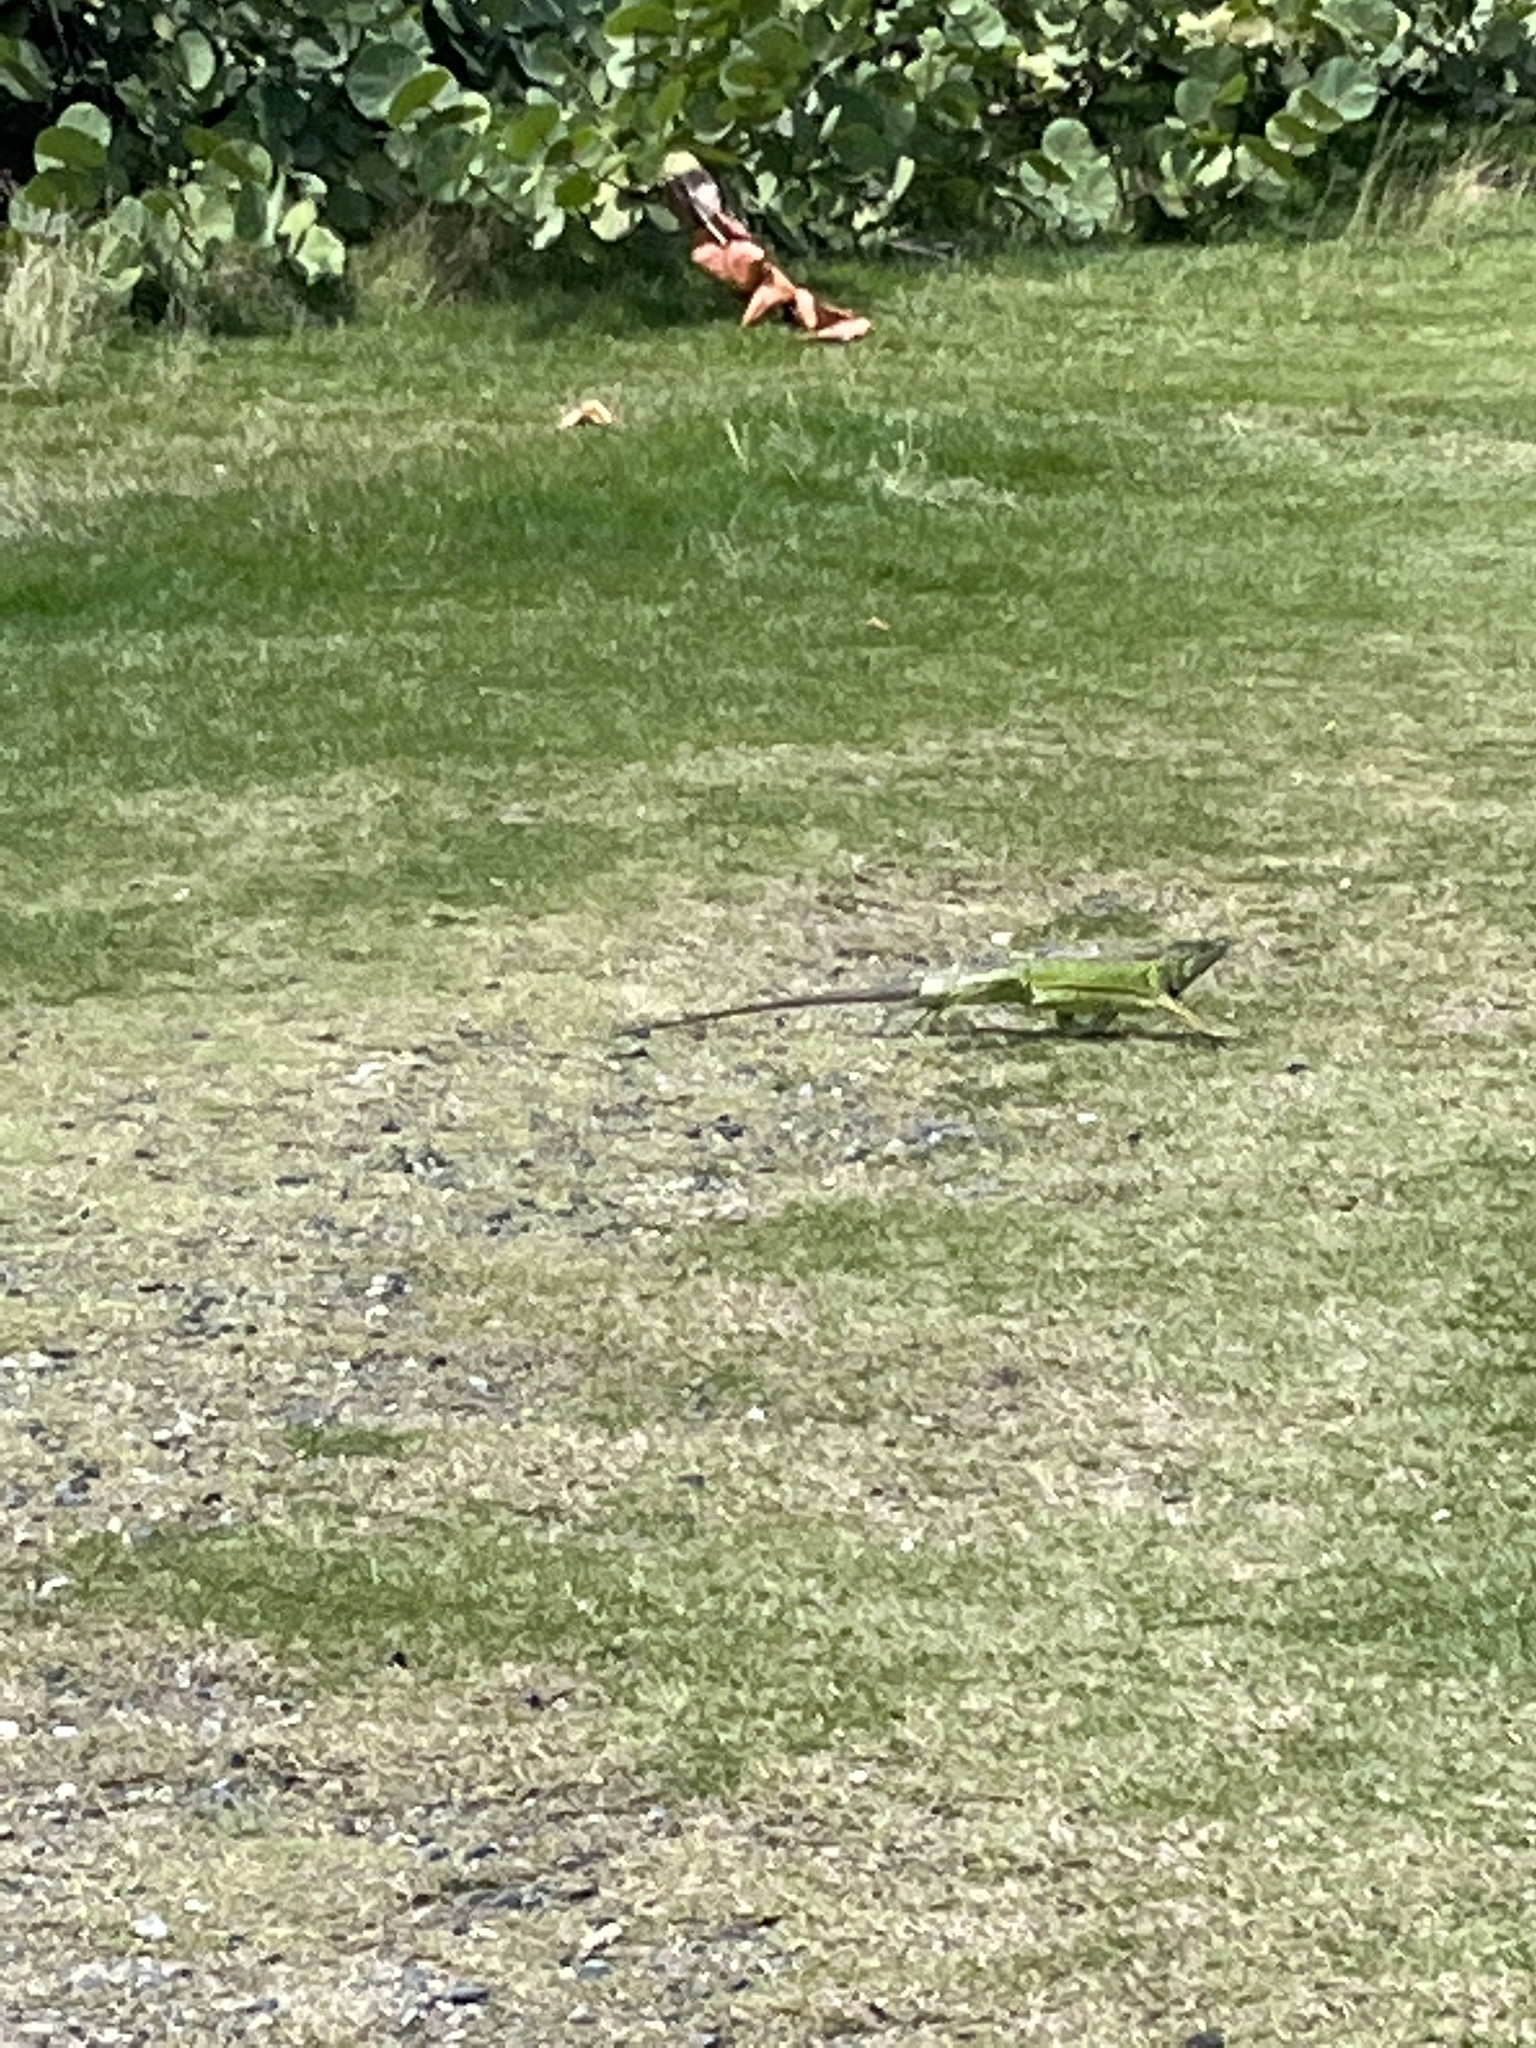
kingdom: Animalia
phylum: Chordata
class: Squamata
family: Iguanidae
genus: Iguana
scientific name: Iguana iguana
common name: Green iguana
